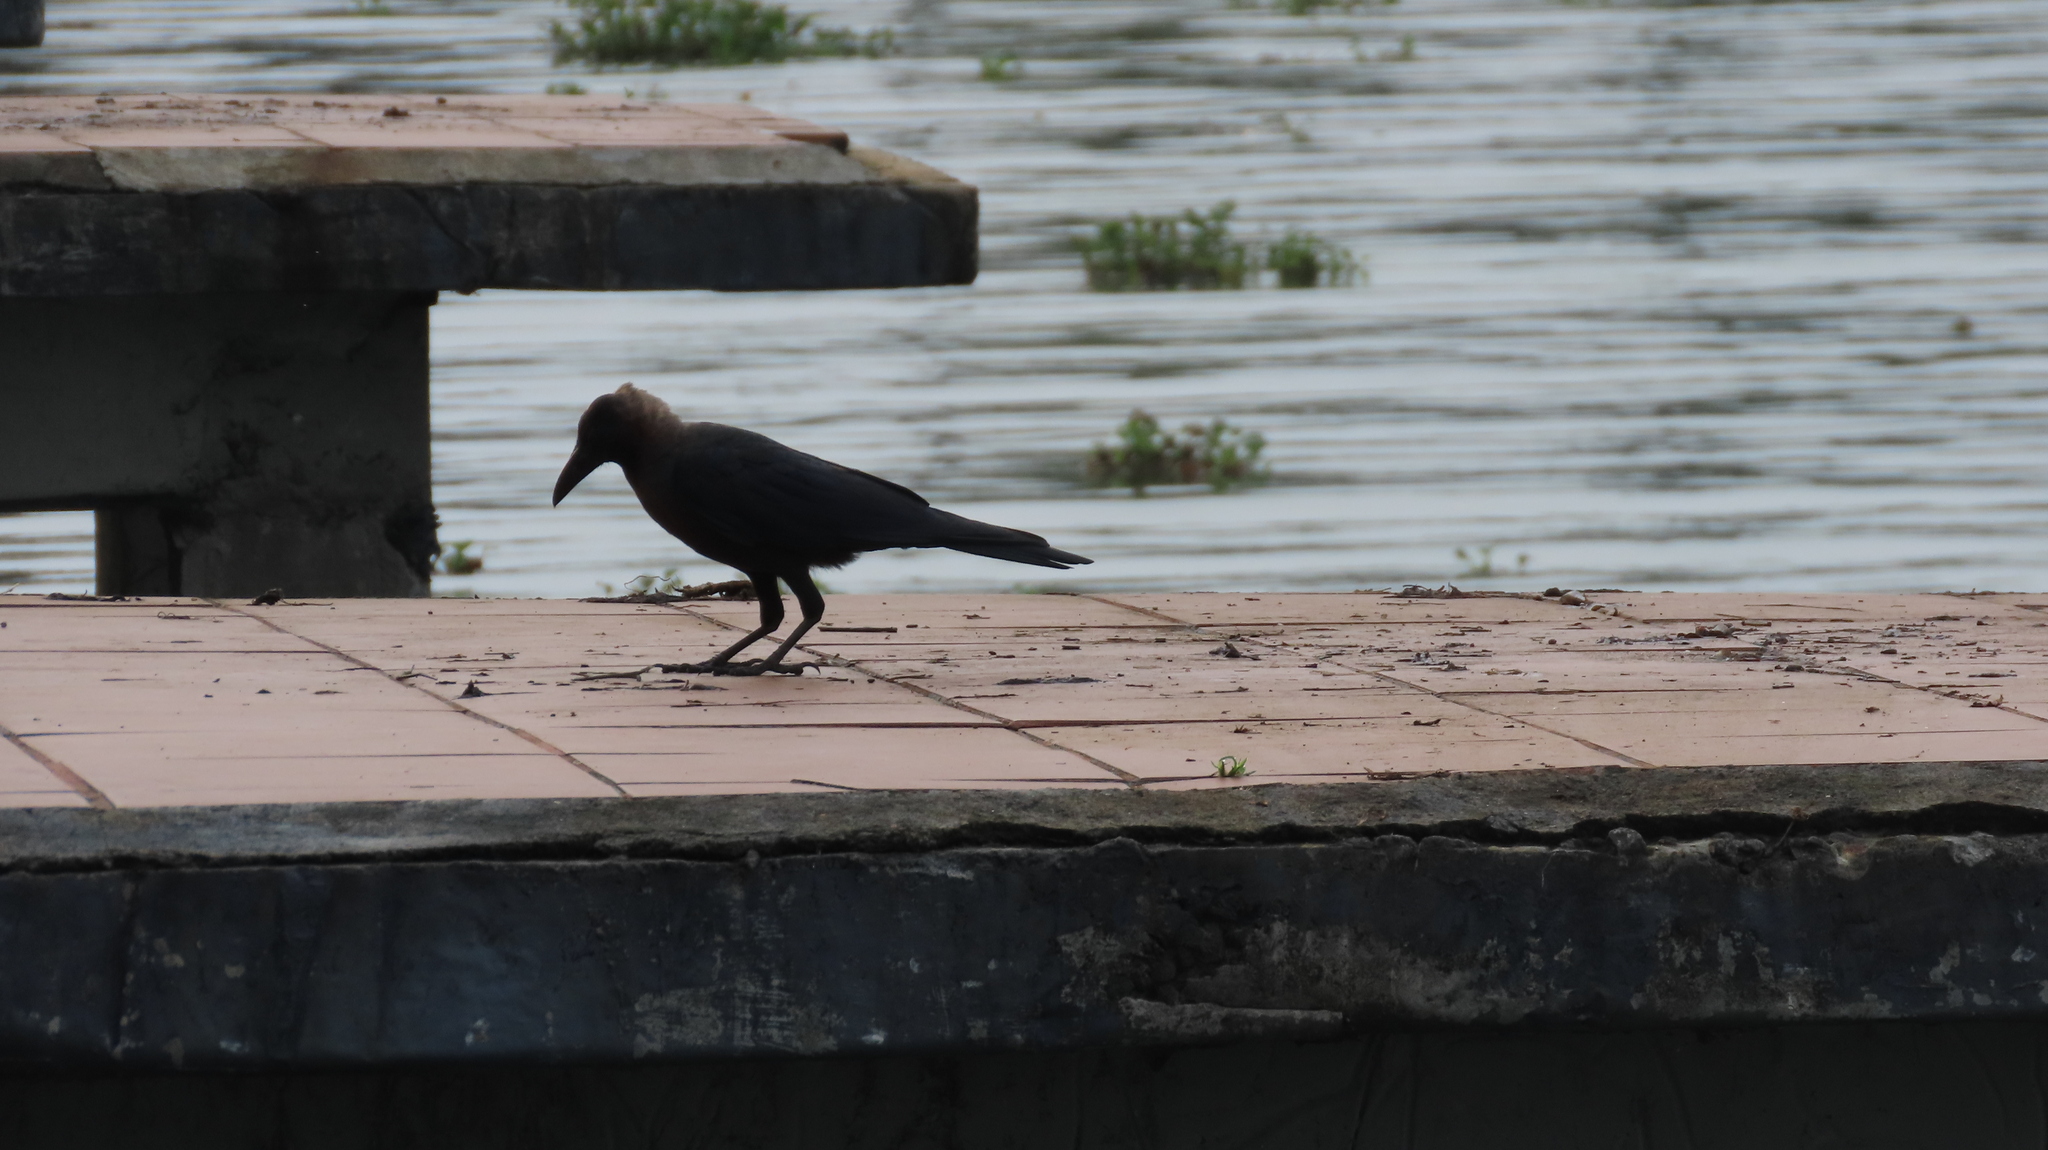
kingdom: Animalia
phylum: Chordata
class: Aves
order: Passeriformes
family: Corvidae
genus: Corvus
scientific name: Corvus splendens
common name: House crow
